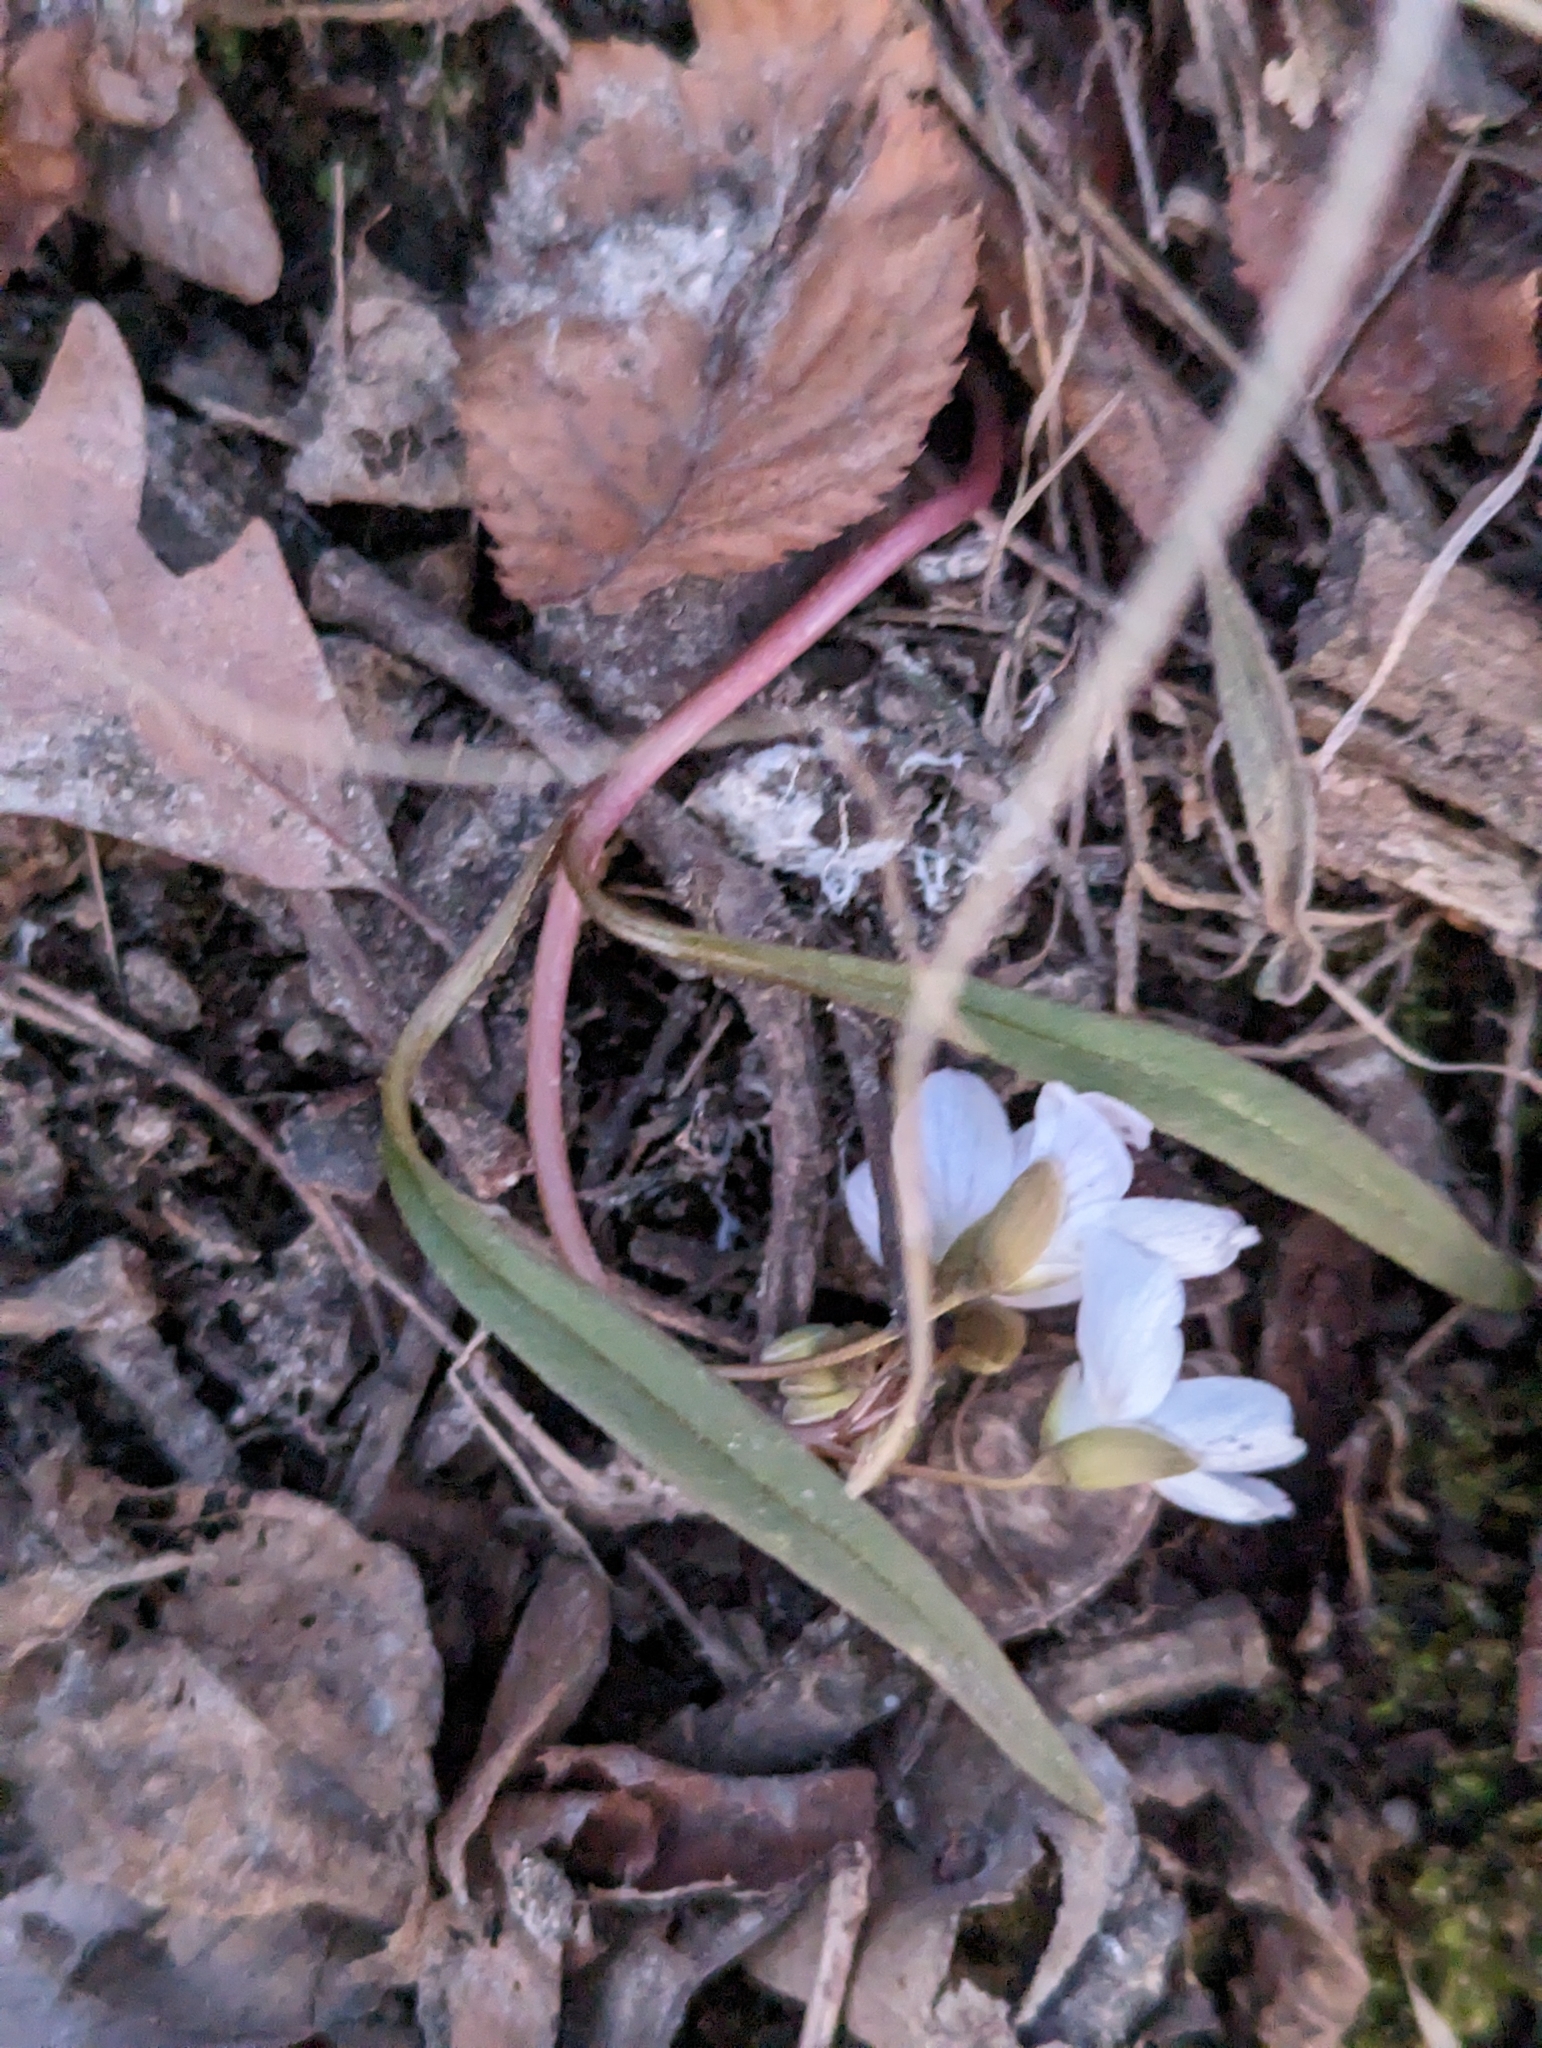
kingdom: Plantae
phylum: Tracheophyta
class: Magnoliopsida
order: Caryophyllales
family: Montiaceae
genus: Claytonia
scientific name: Claytonia virginica
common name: Virginia springbeauty
